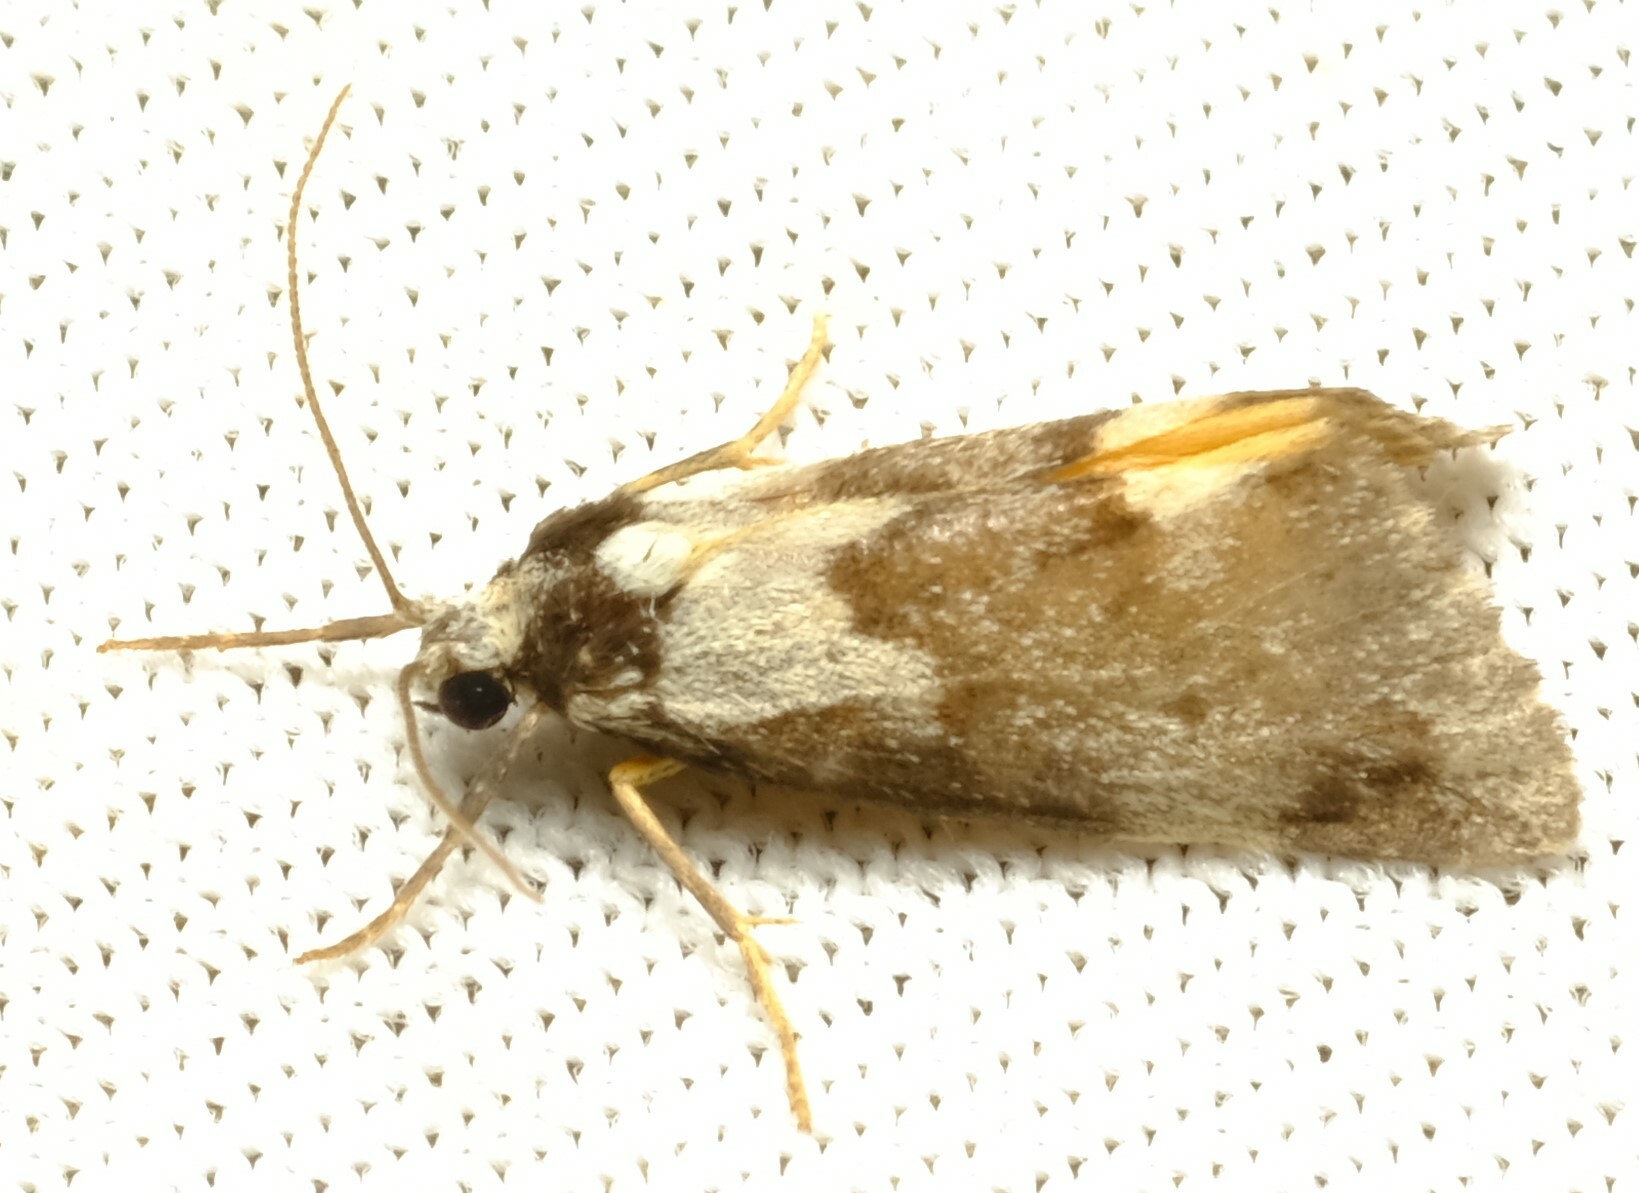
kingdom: Animalia
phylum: Arthropoda
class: Insecta
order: Lepidoptera
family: Erebidae
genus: Philenora
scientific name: Philenora malthaca
